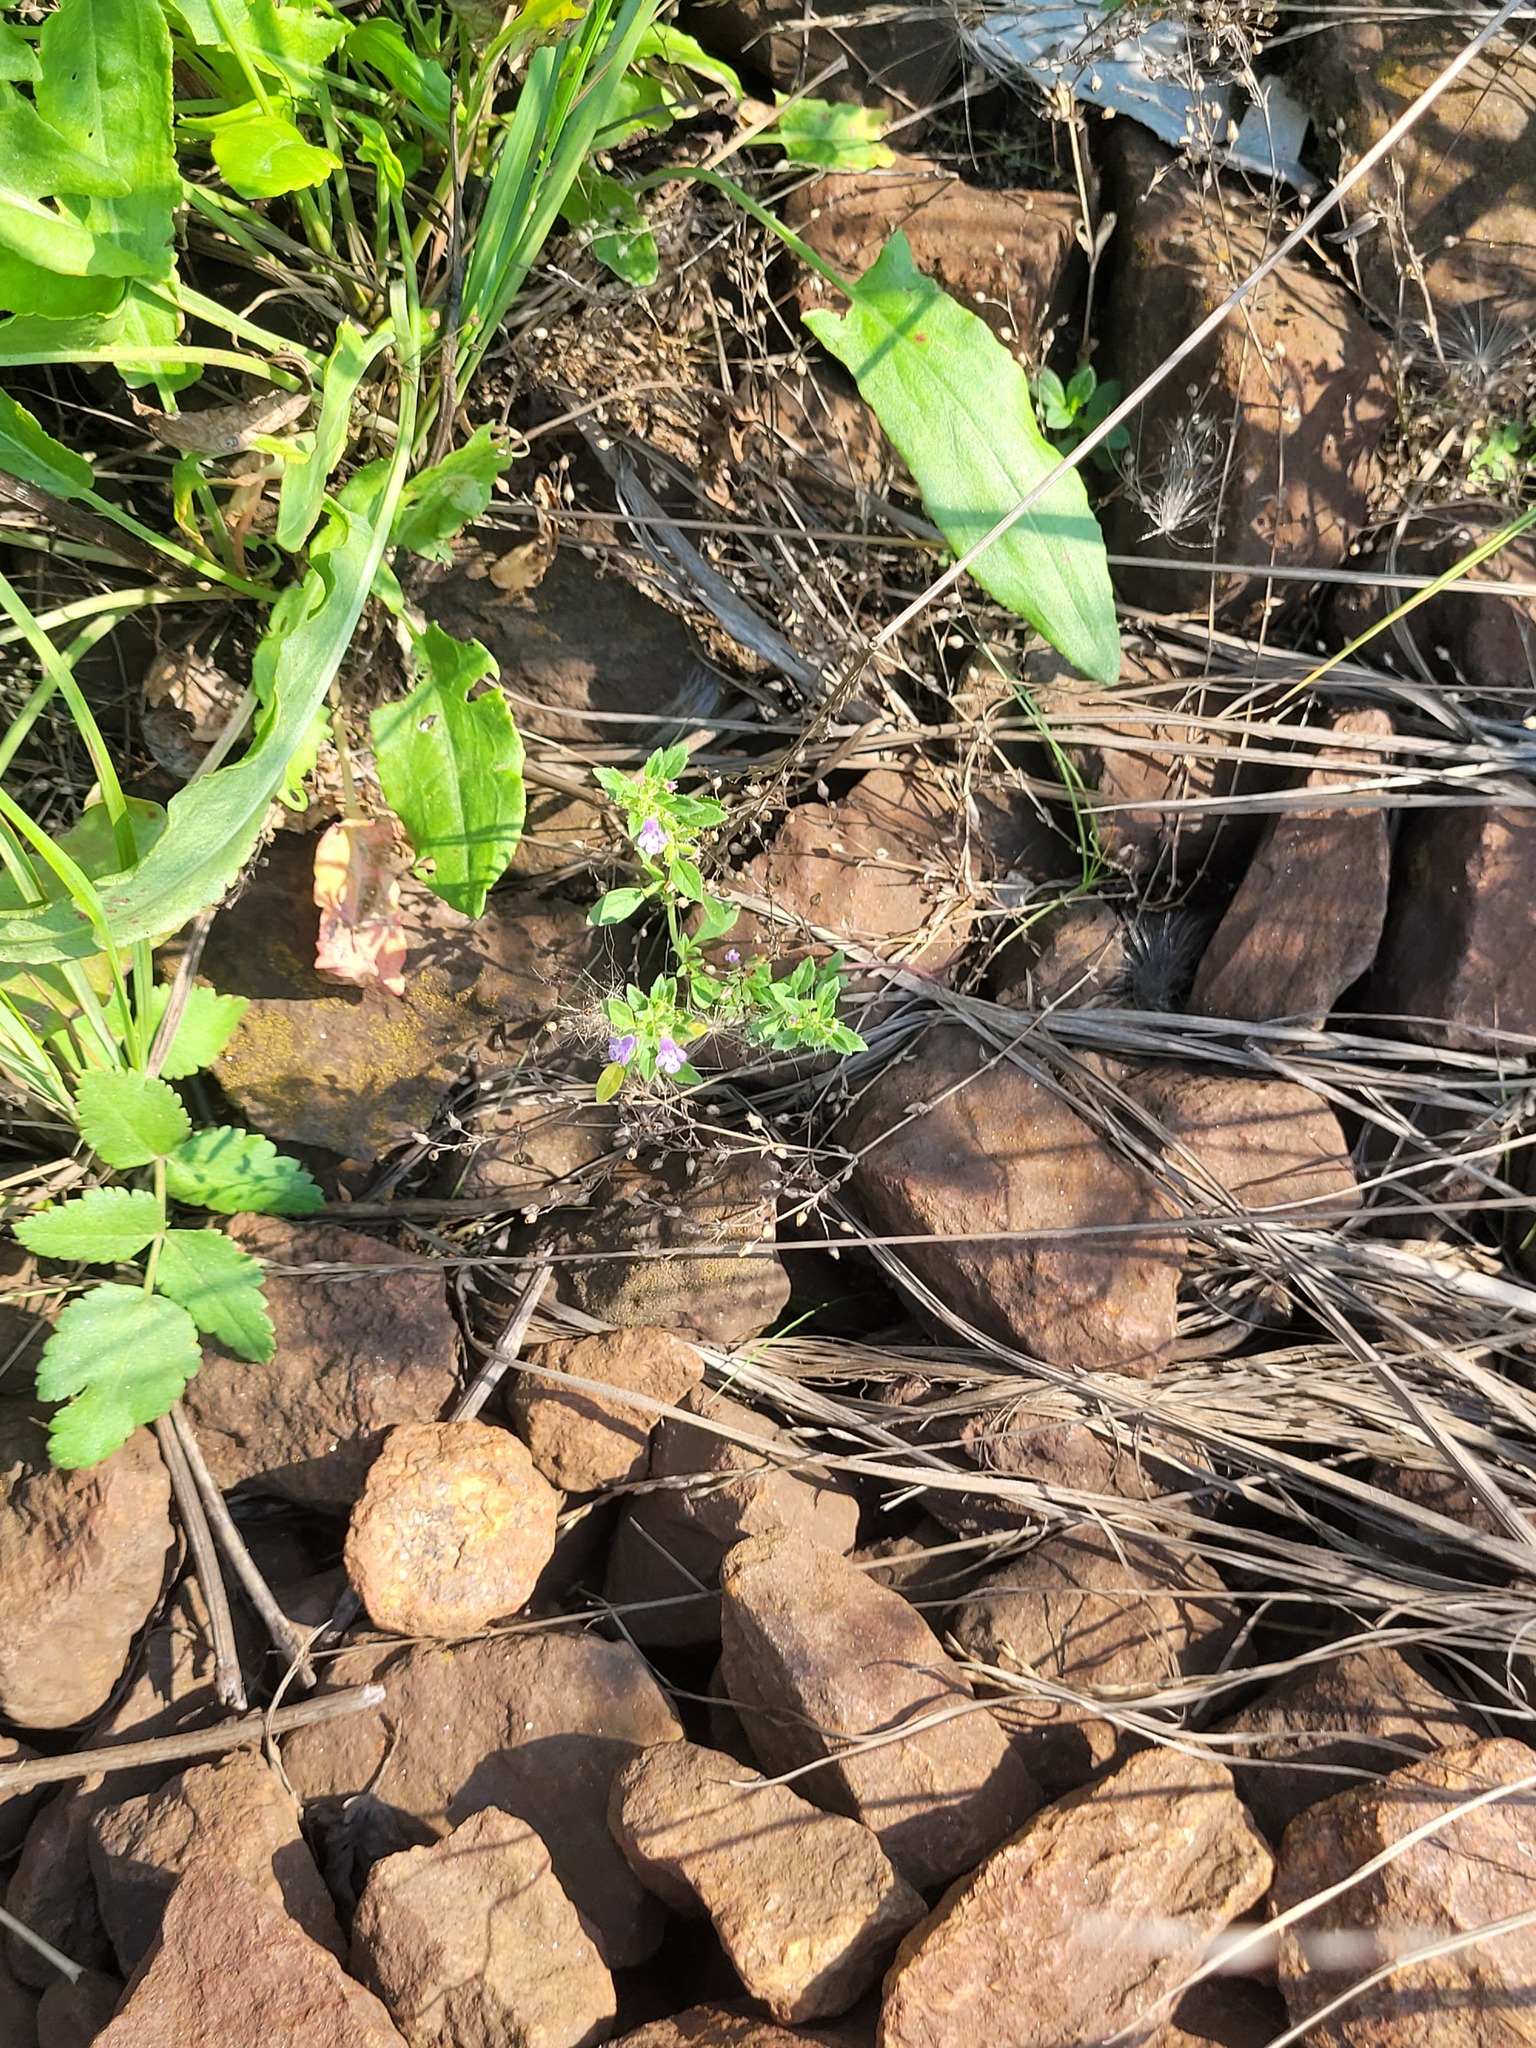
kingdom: Plantae
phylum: Tracheophyta
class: Magnoliopsida
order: Lamiales
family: Lamiaceae
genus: Clinopodium
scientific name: Clinopodium acinos
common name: Basil thyme
